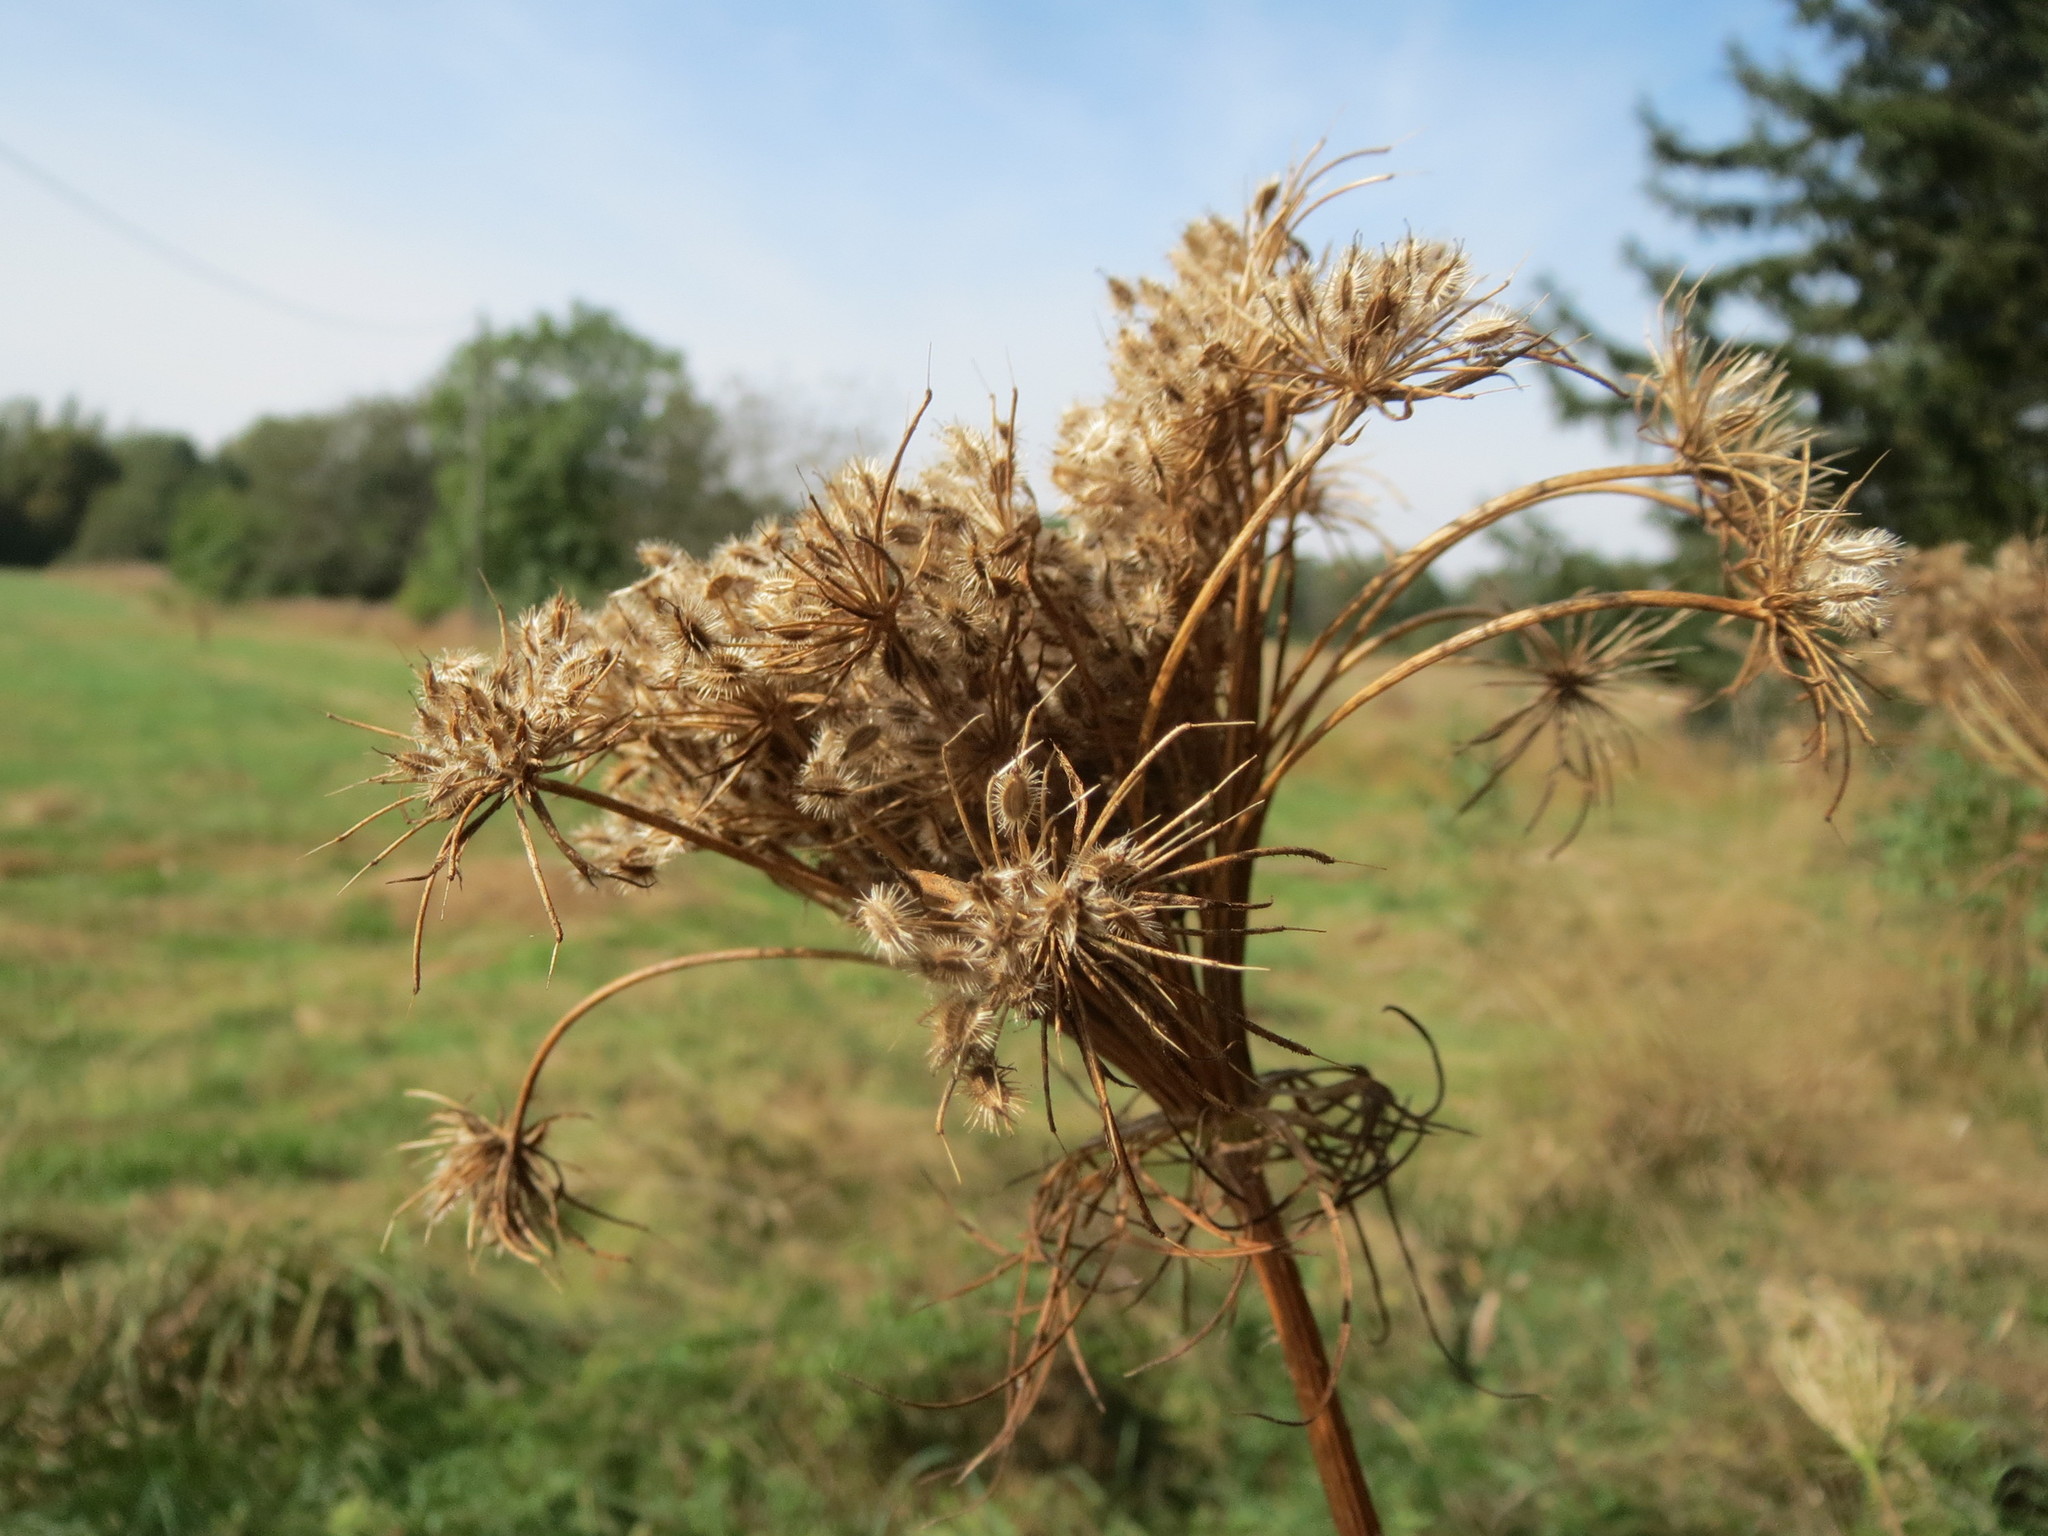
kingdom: Plantae
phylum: Tracheophyta
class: Magnoliopsida
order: Apiales
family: Apiaceae
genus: Daucus
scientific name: Daucus carota
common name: Wild carrot
